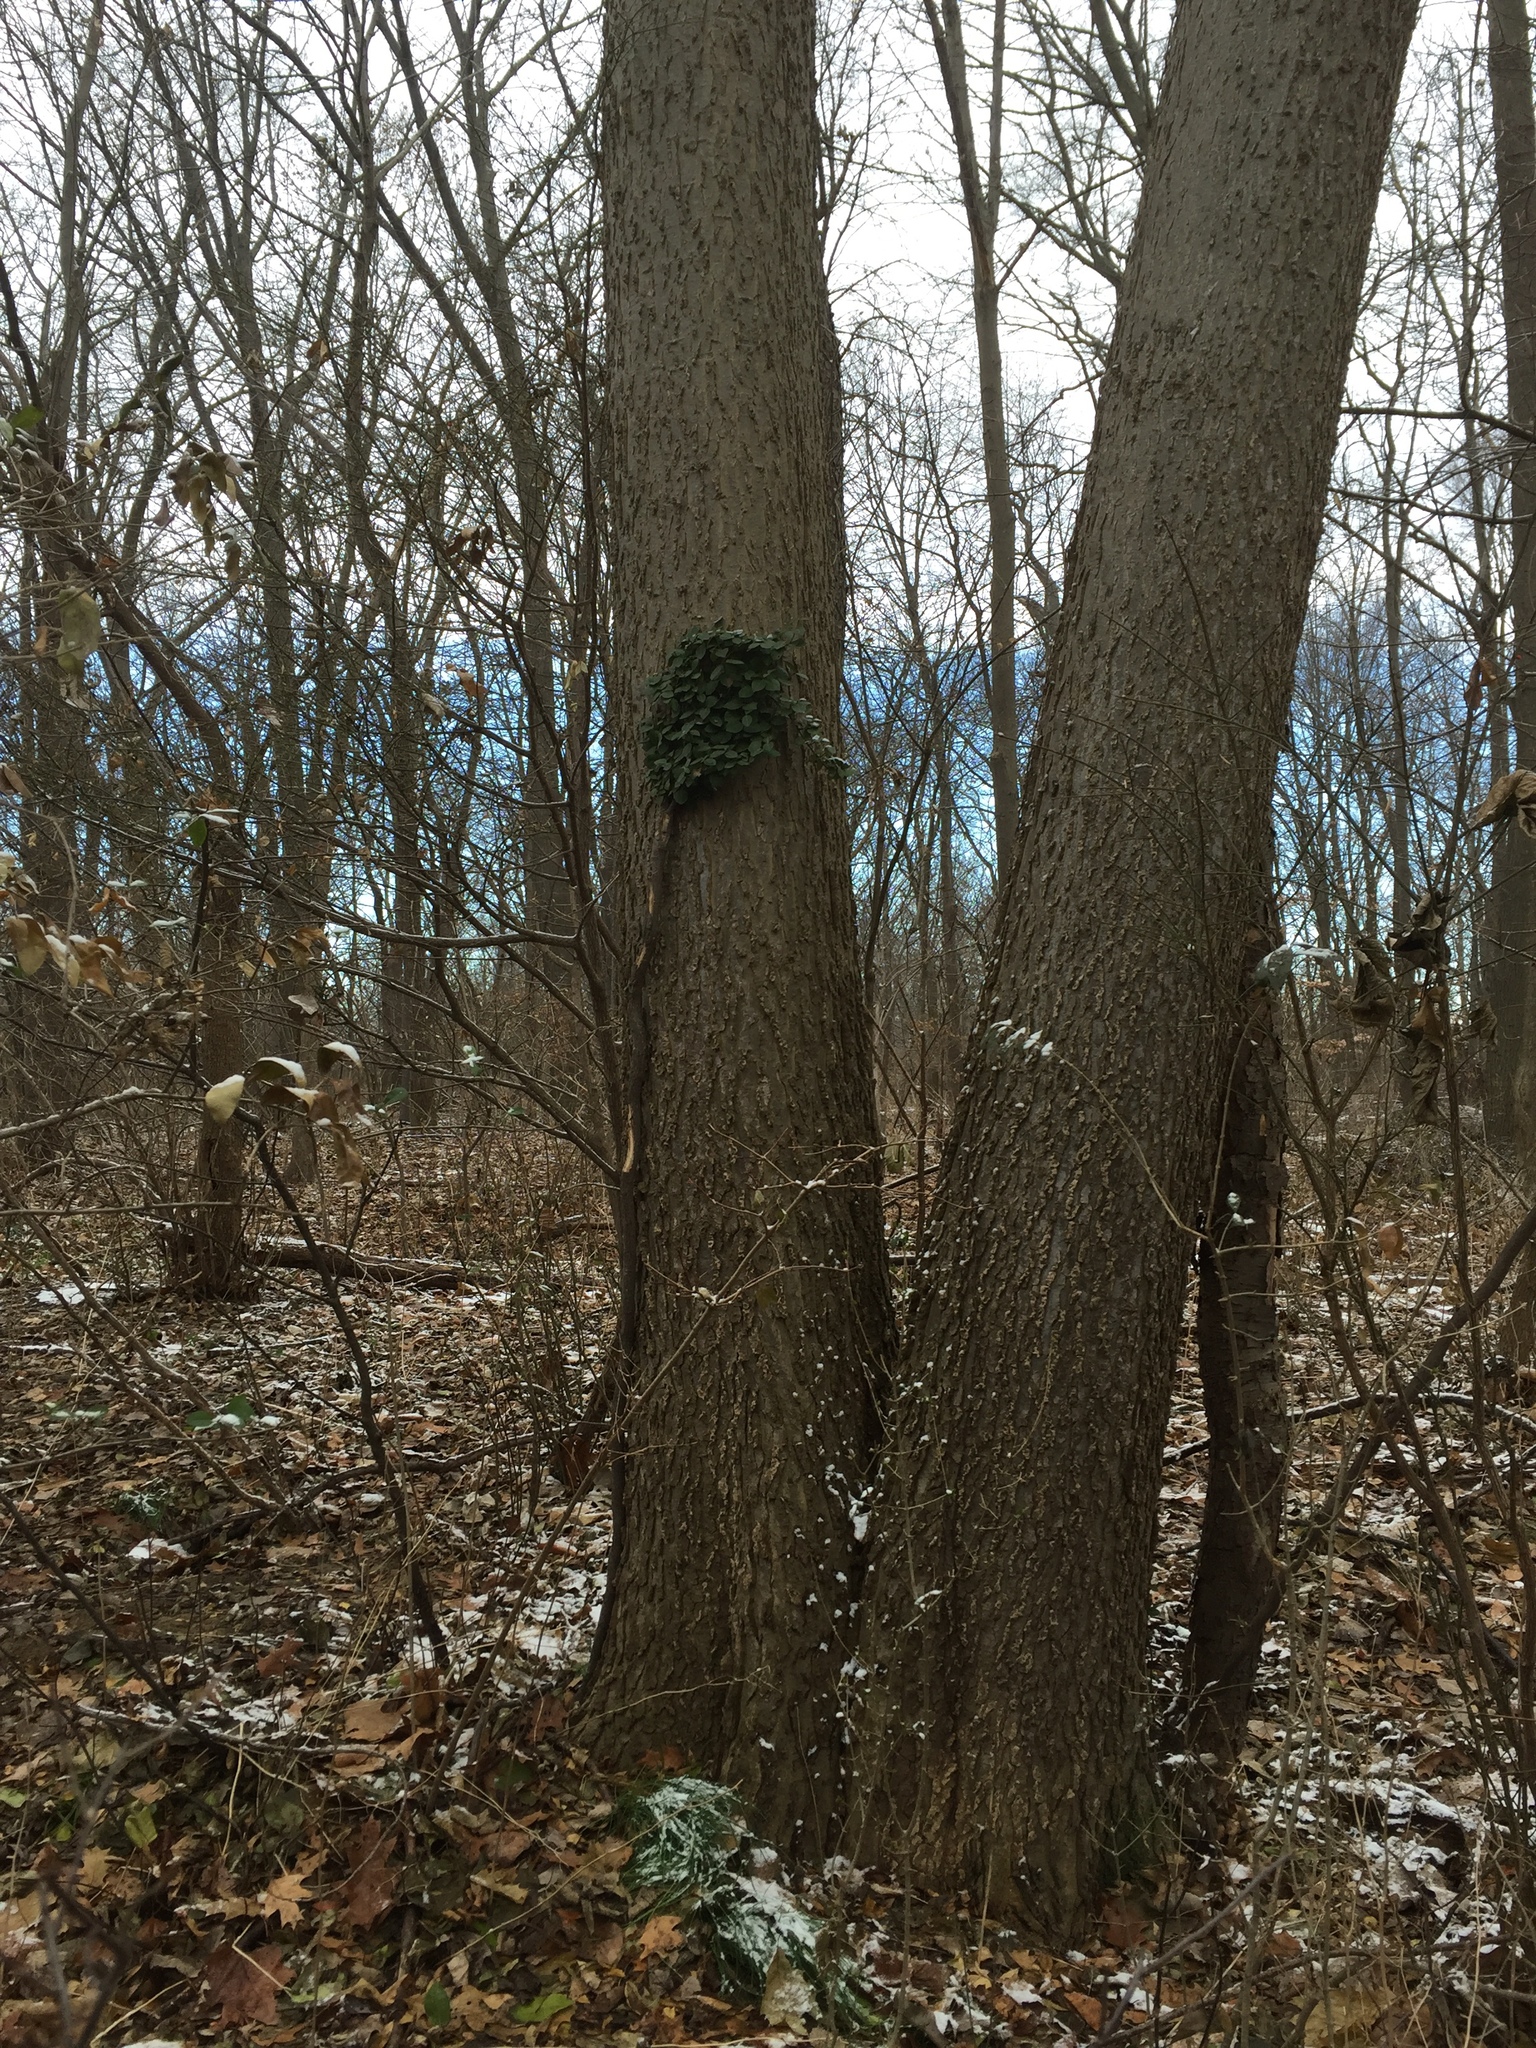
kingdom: Plantae
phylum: Tracheophyta
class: Magnoliopsida
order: Celastrales
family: Celastraceae
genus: Euonymus
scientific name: Euonymus fortunei
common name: Climbing euonymus
